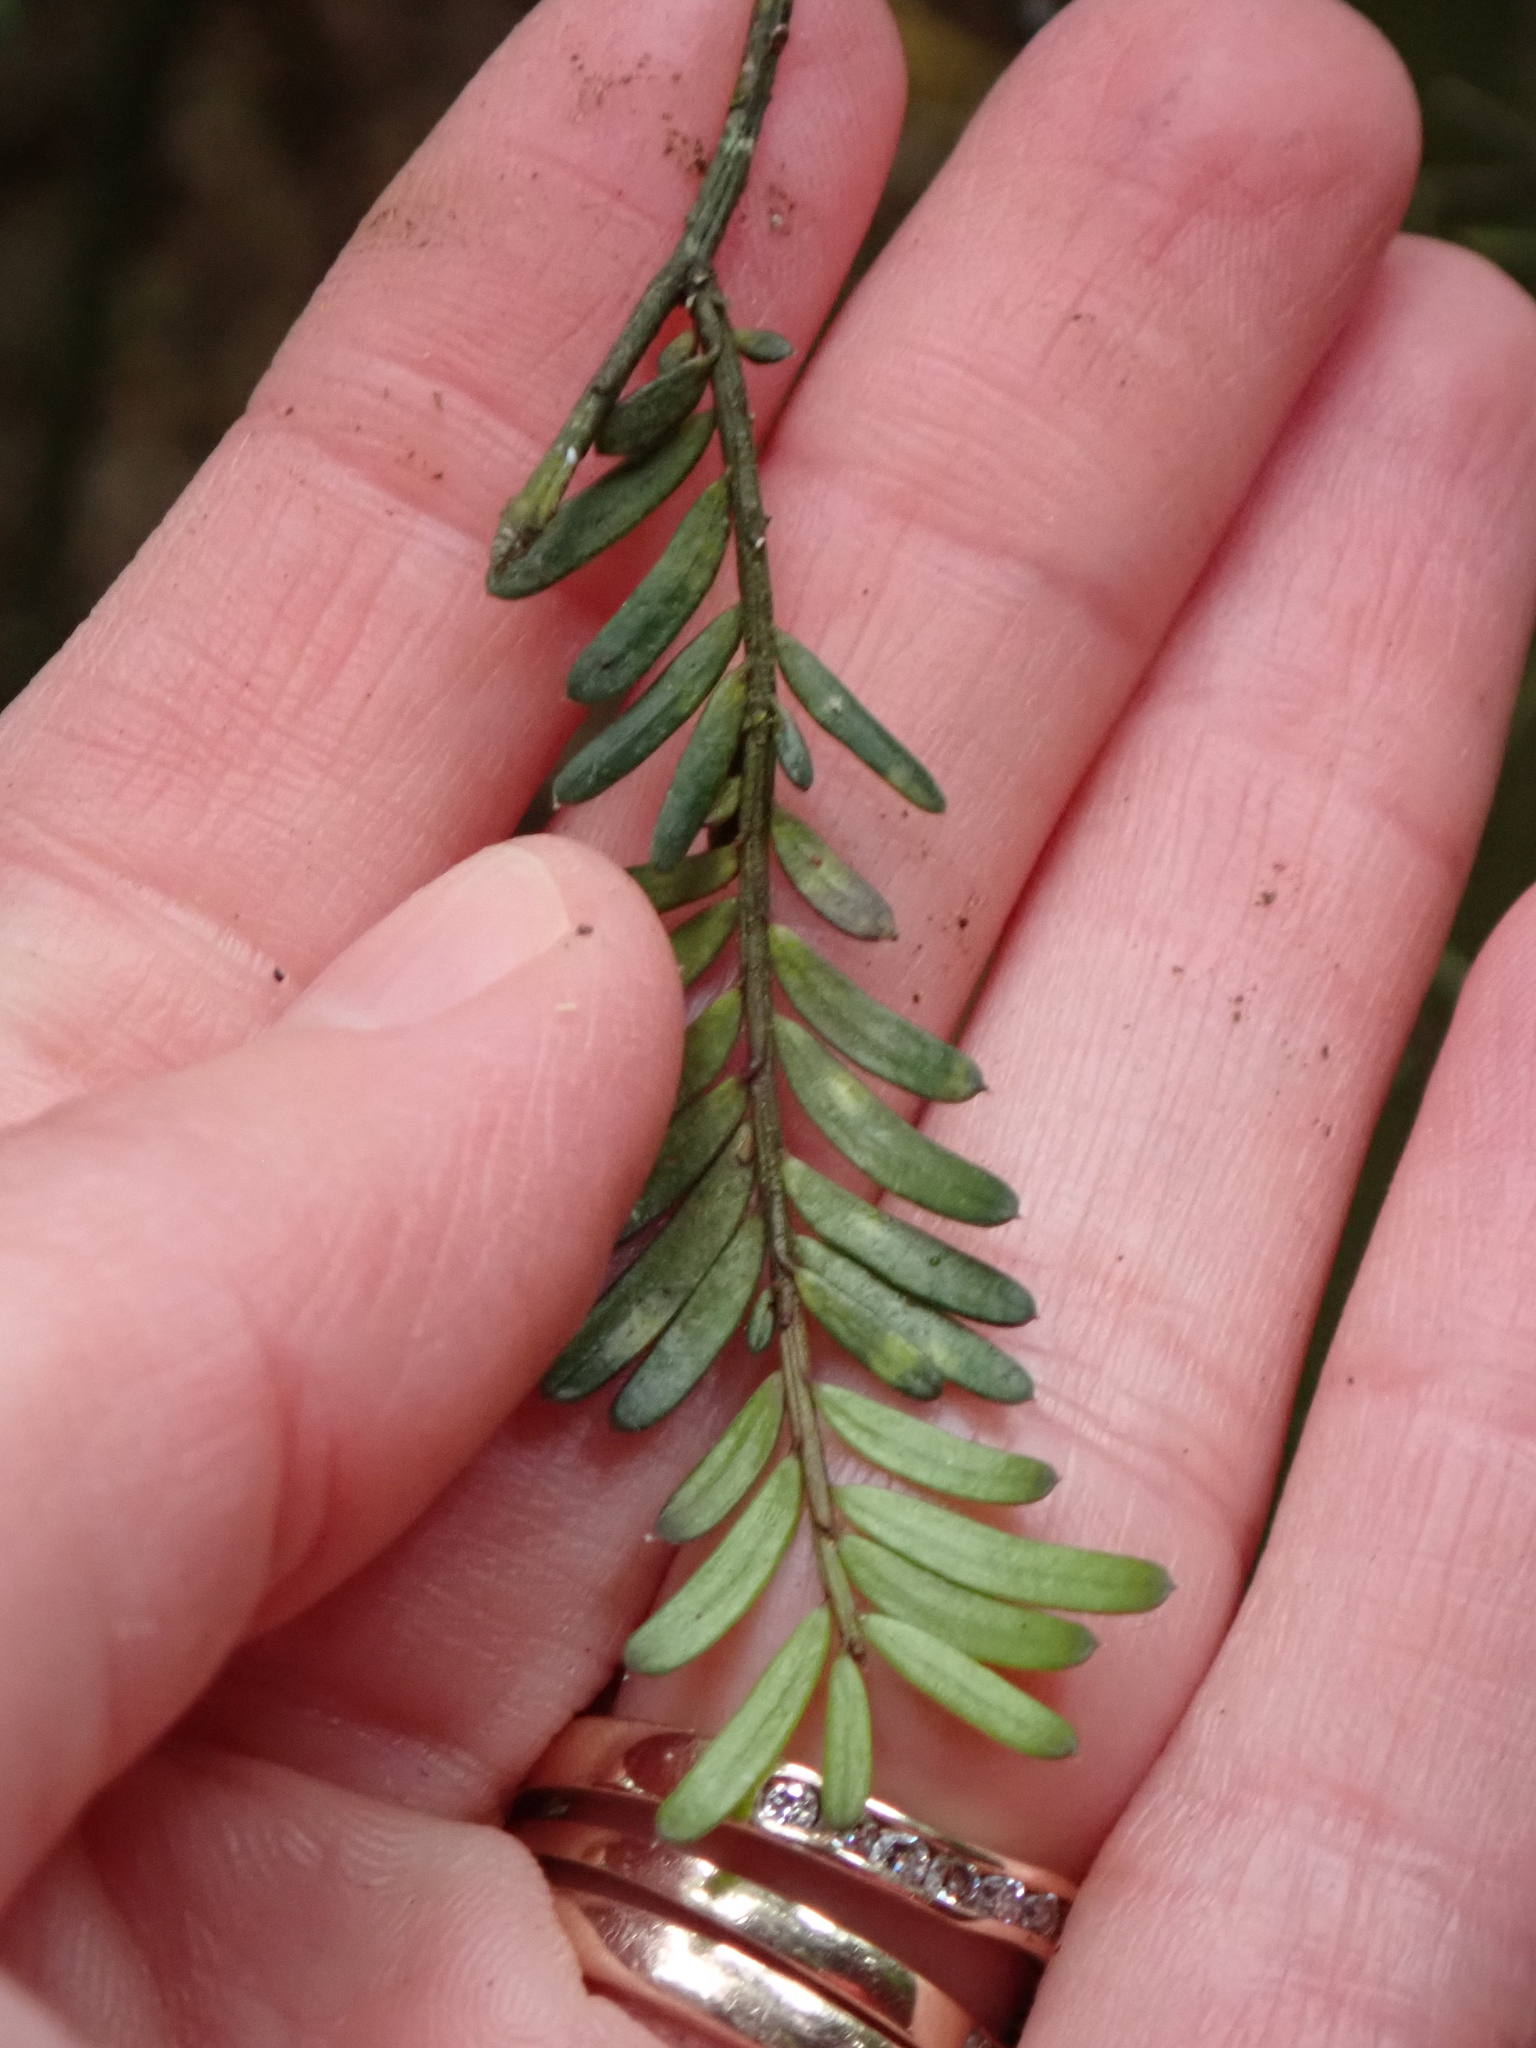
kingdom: Plantae
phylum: Tracheophyta
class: Pinopsida
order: Pinales
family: Podocarpaceae
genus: Prumnopitys
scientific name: Prumnopitys taxifolia
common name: Matai
